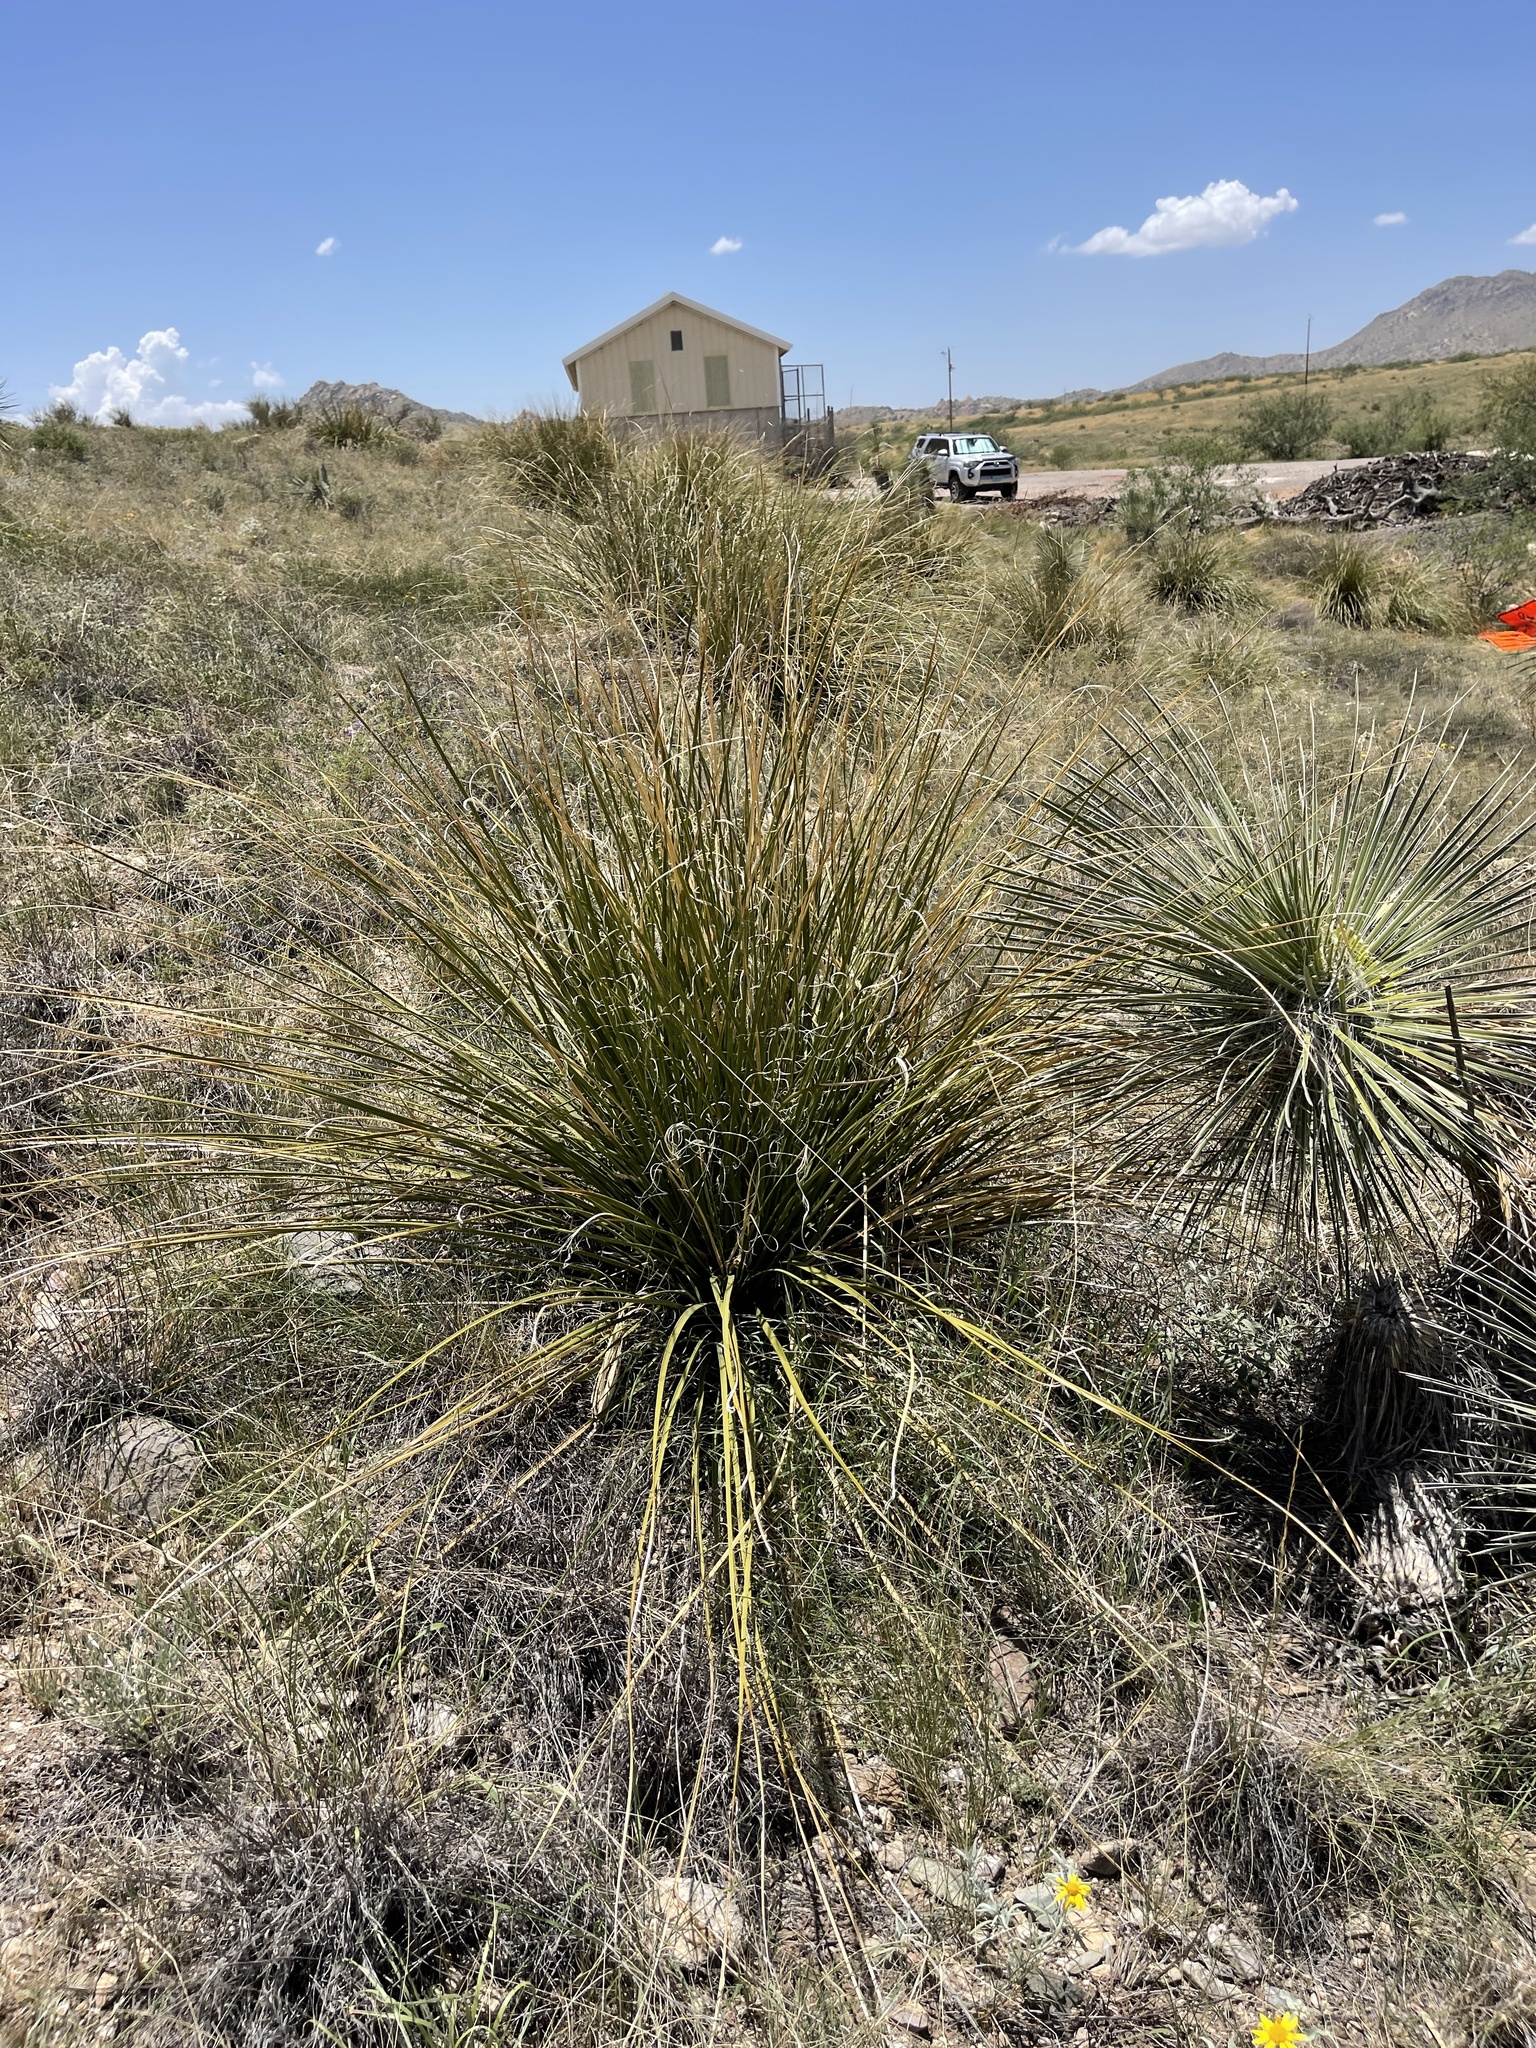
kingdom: Plantae
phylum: Tracheophyta
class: Liliopsida
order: Asparagales
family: Asparagaceae
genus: Nolina
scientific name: Nolina microcarpa
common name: Bear-grass
